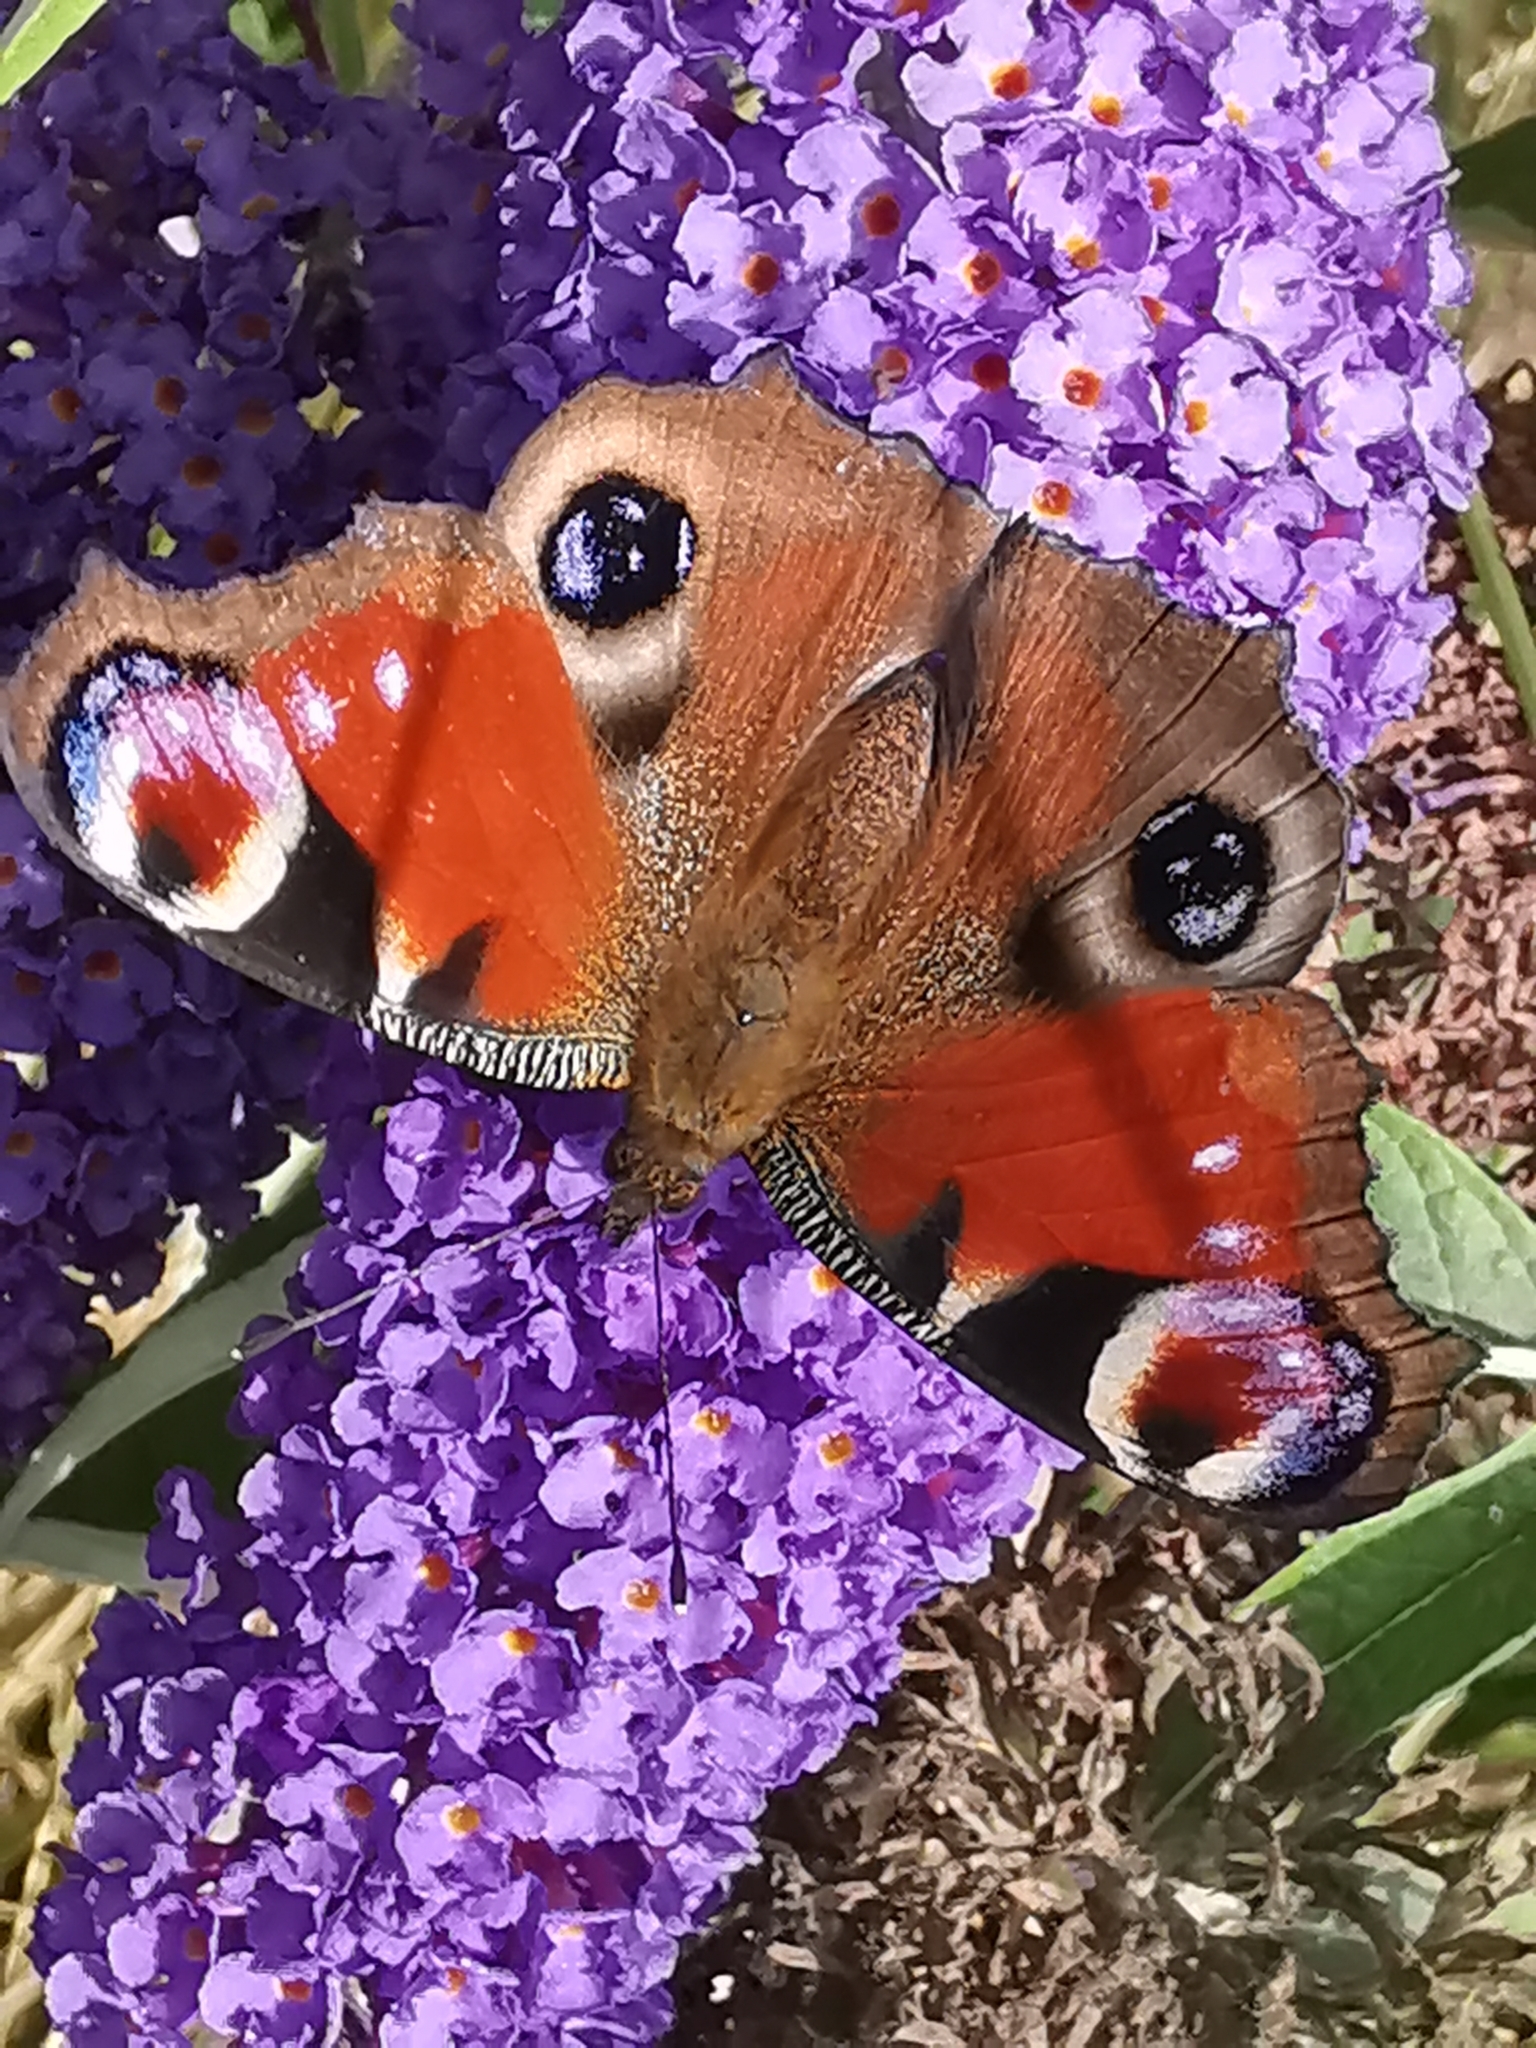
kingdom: Animalia
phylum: Arthropoda
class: Insecta
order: Lepidoptera
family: Nymphalidae
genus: Aglais
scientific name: Aglais io
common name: Peacock
